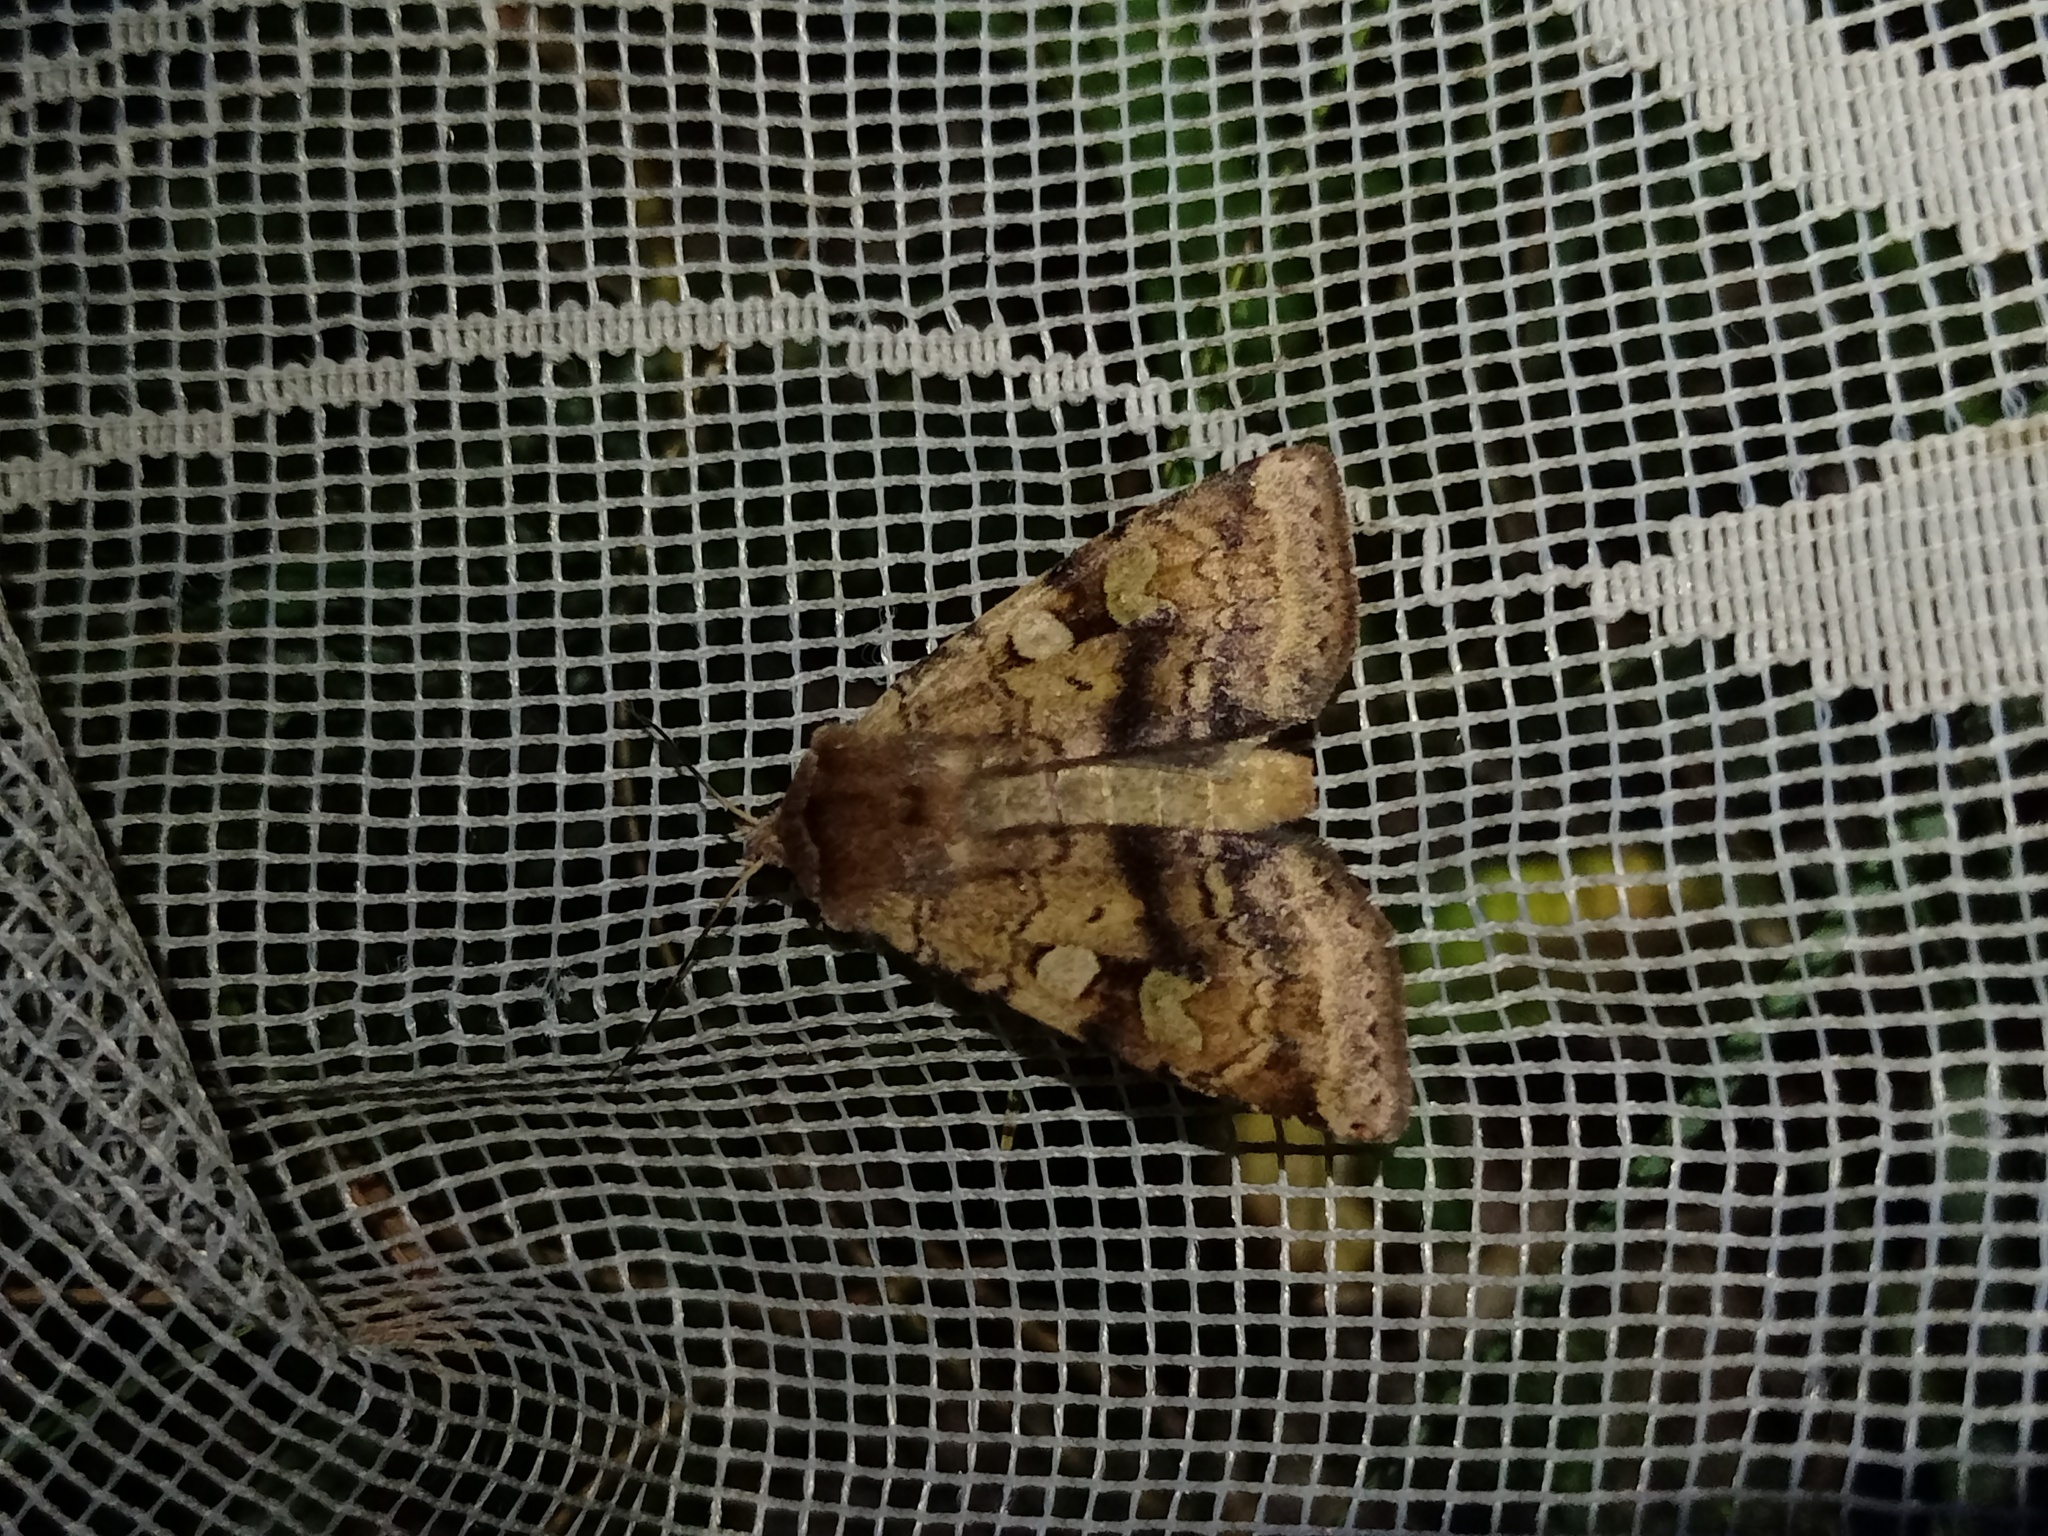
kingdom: Animalia
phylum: Arthropoda
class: Insecta
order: Lepidoptera
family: Noctuidae
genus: Diarsia
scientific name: Diarsia mendica
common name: Ingrailed clay
